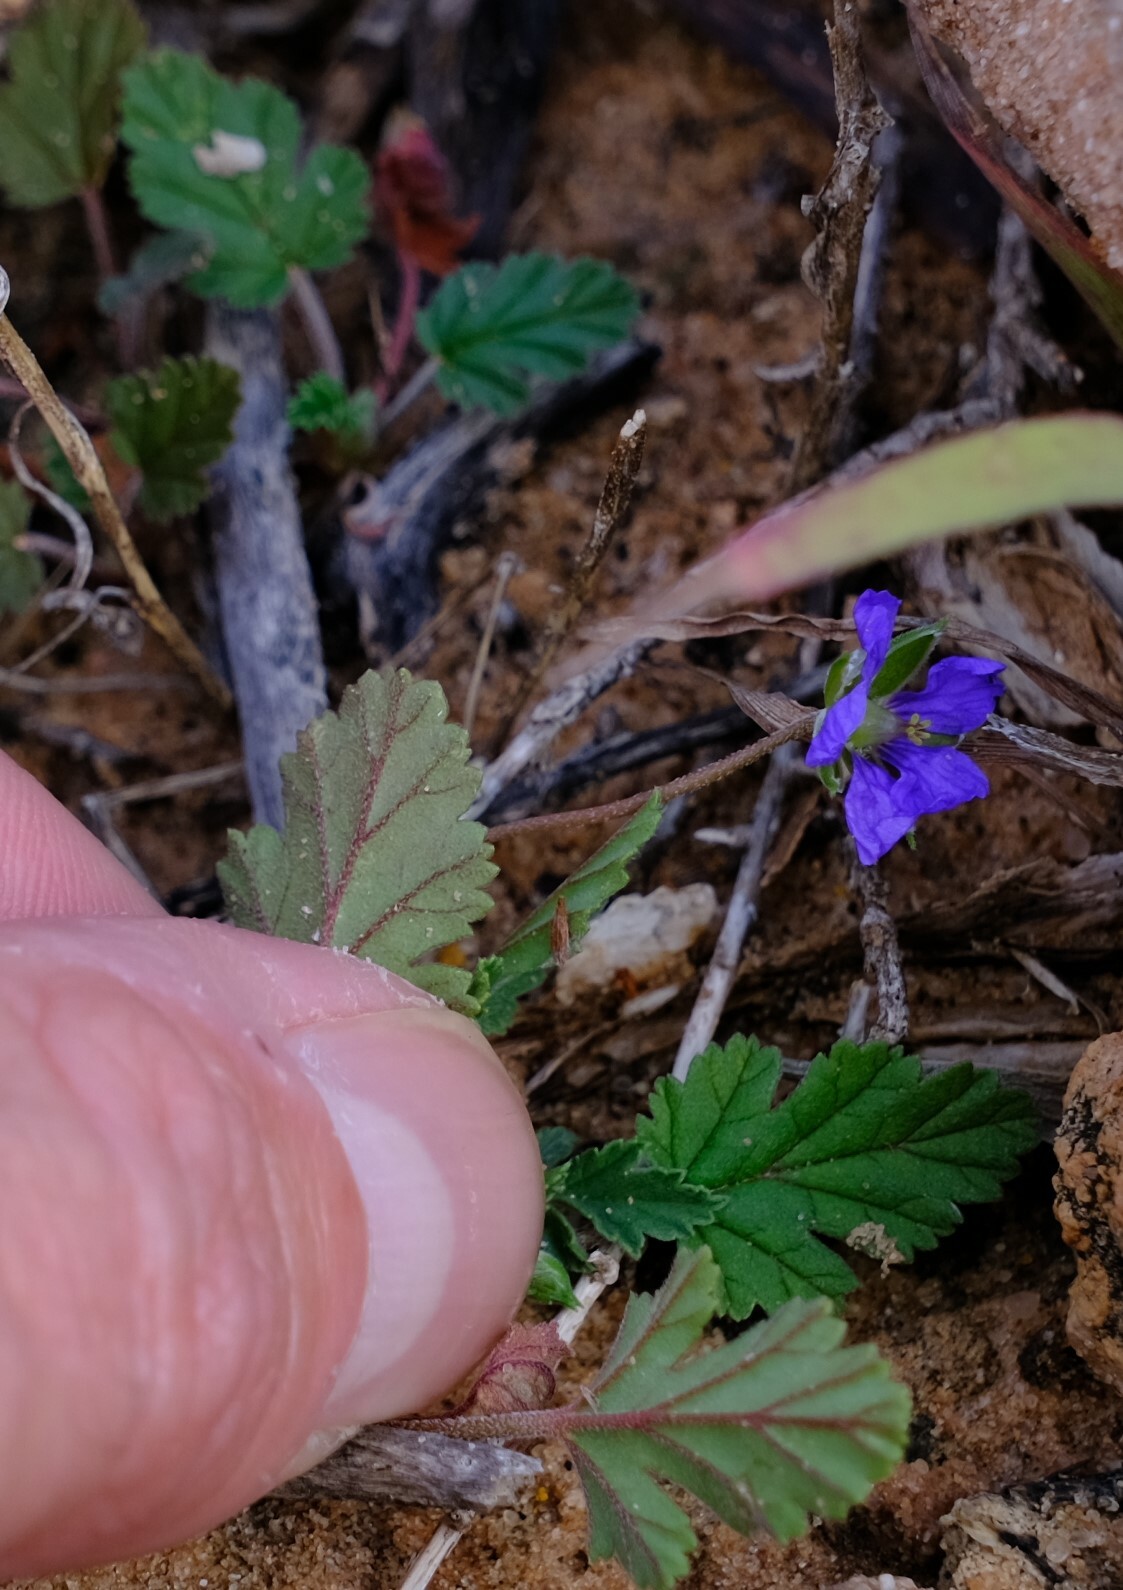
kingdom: Plantae
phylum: Tracheophyta
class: Magnoliopsida
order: Geraniales
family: Geraniaceae
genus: Erodium
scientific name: Erodium cygnorum
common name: Western stork's-bill
